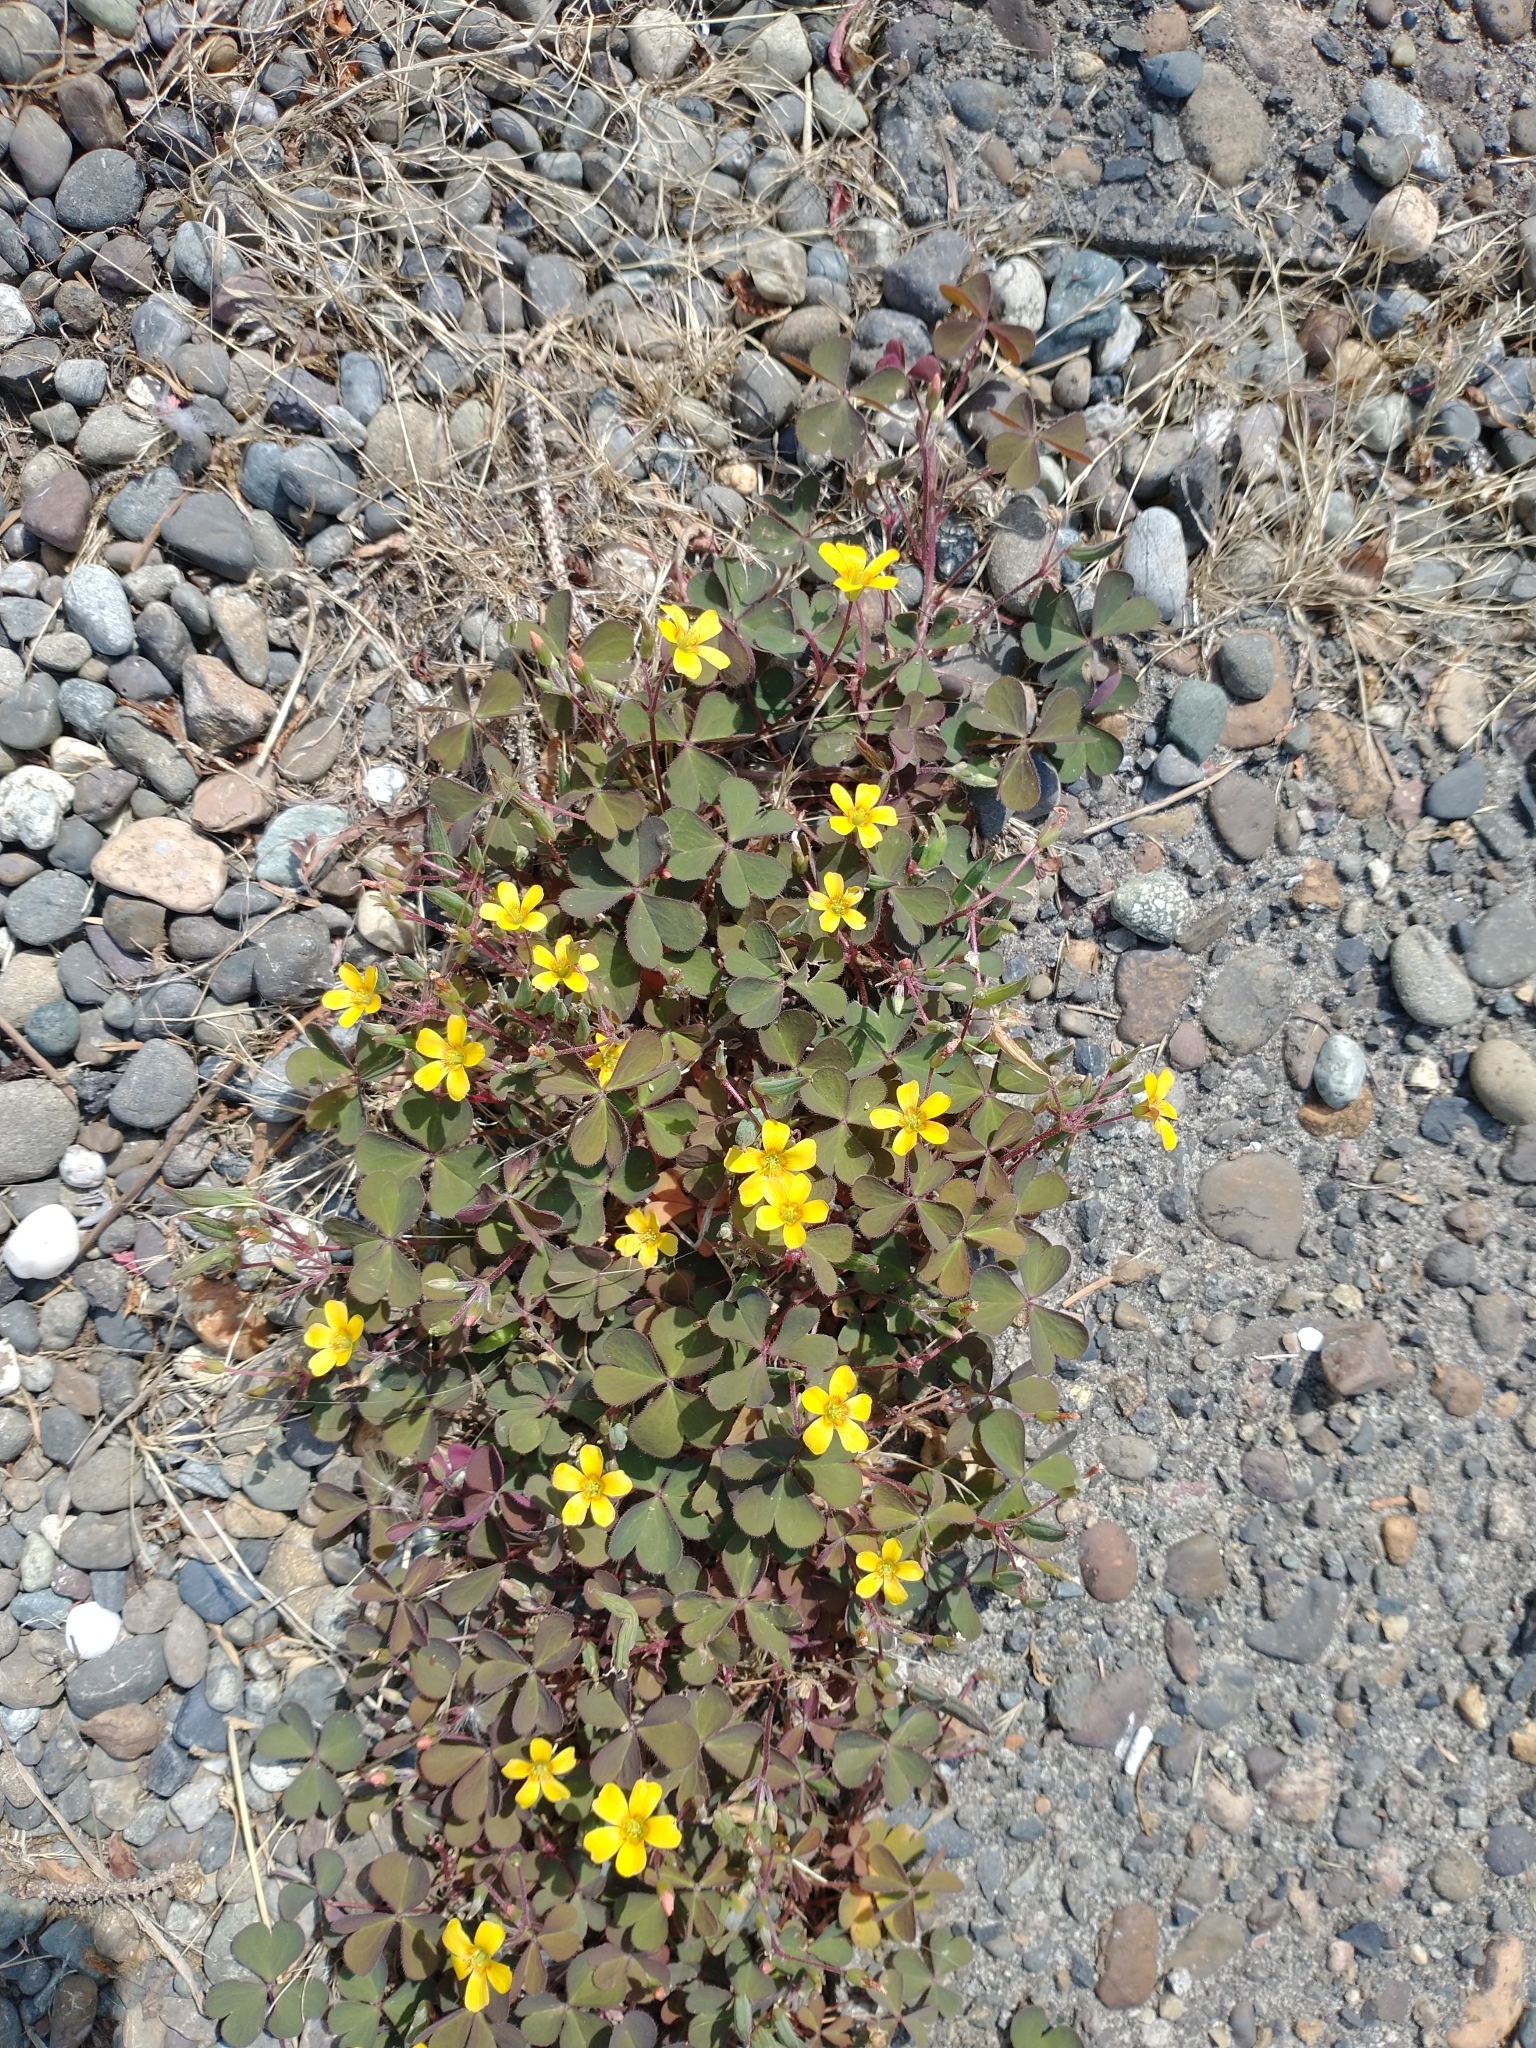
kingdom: Plantae
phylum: Tracheophyta
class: Magnoliopsida
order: Oxalidales
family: Oxalidaceae
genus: Oxalis
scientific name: Oxalis corniculata
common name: Procumbent yellow-sorrel
